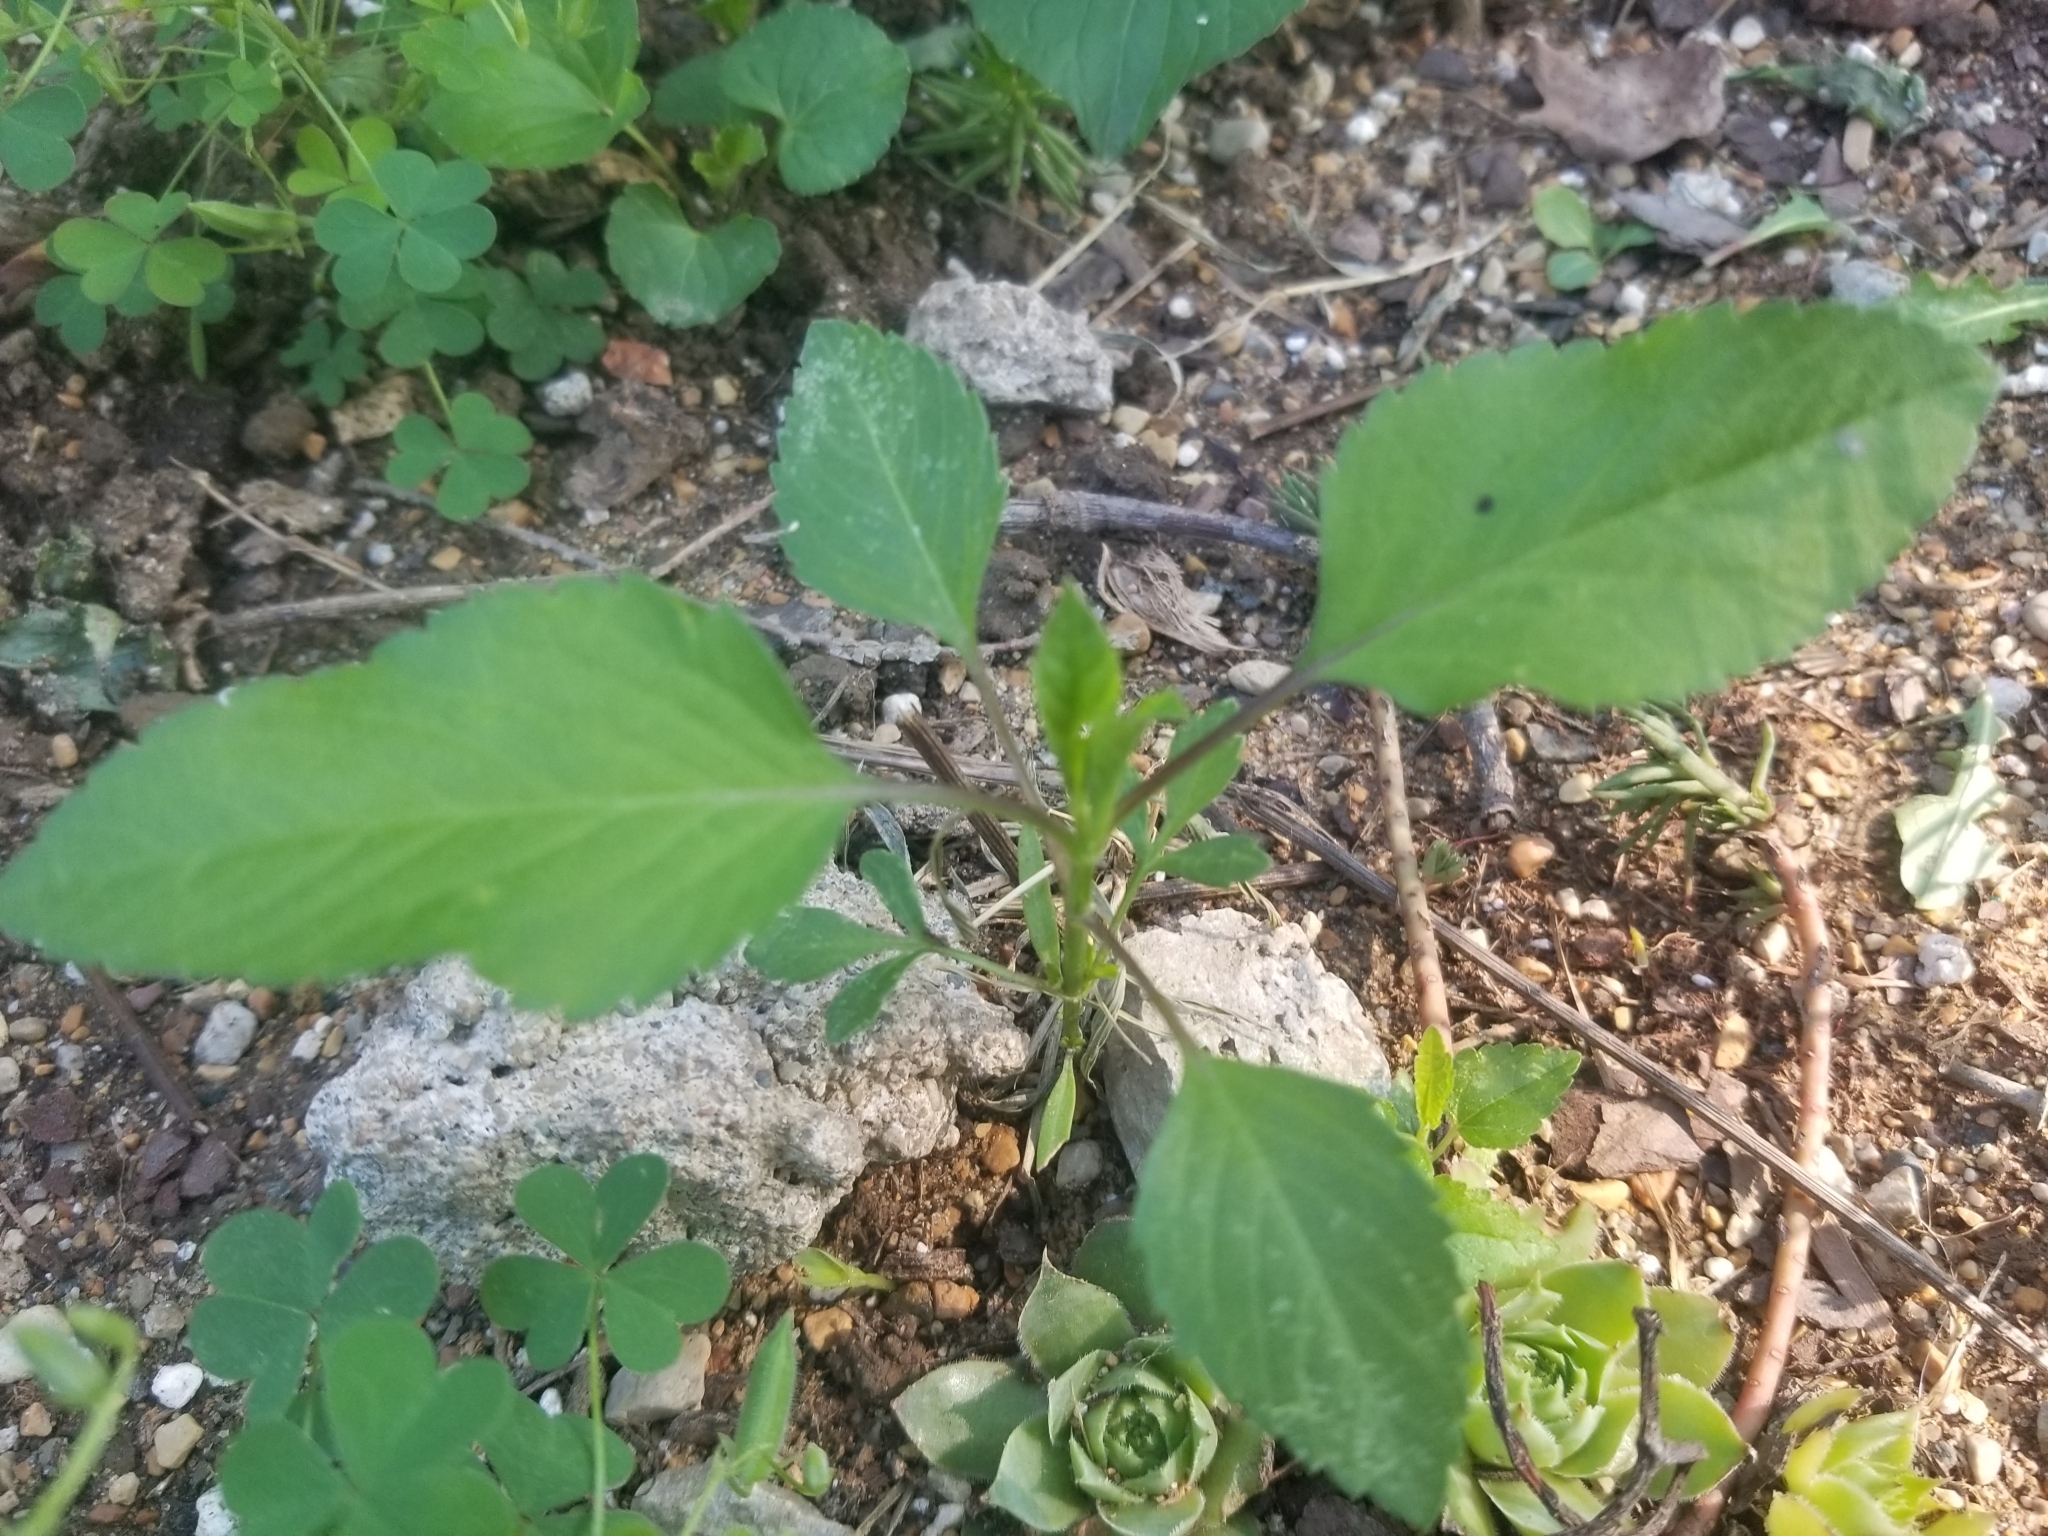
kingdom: Plantae
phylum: Tracheophyta
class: Magnoliopsida
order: Asterales
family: Asteraceae
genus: Bidens
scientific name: Bidens alba
